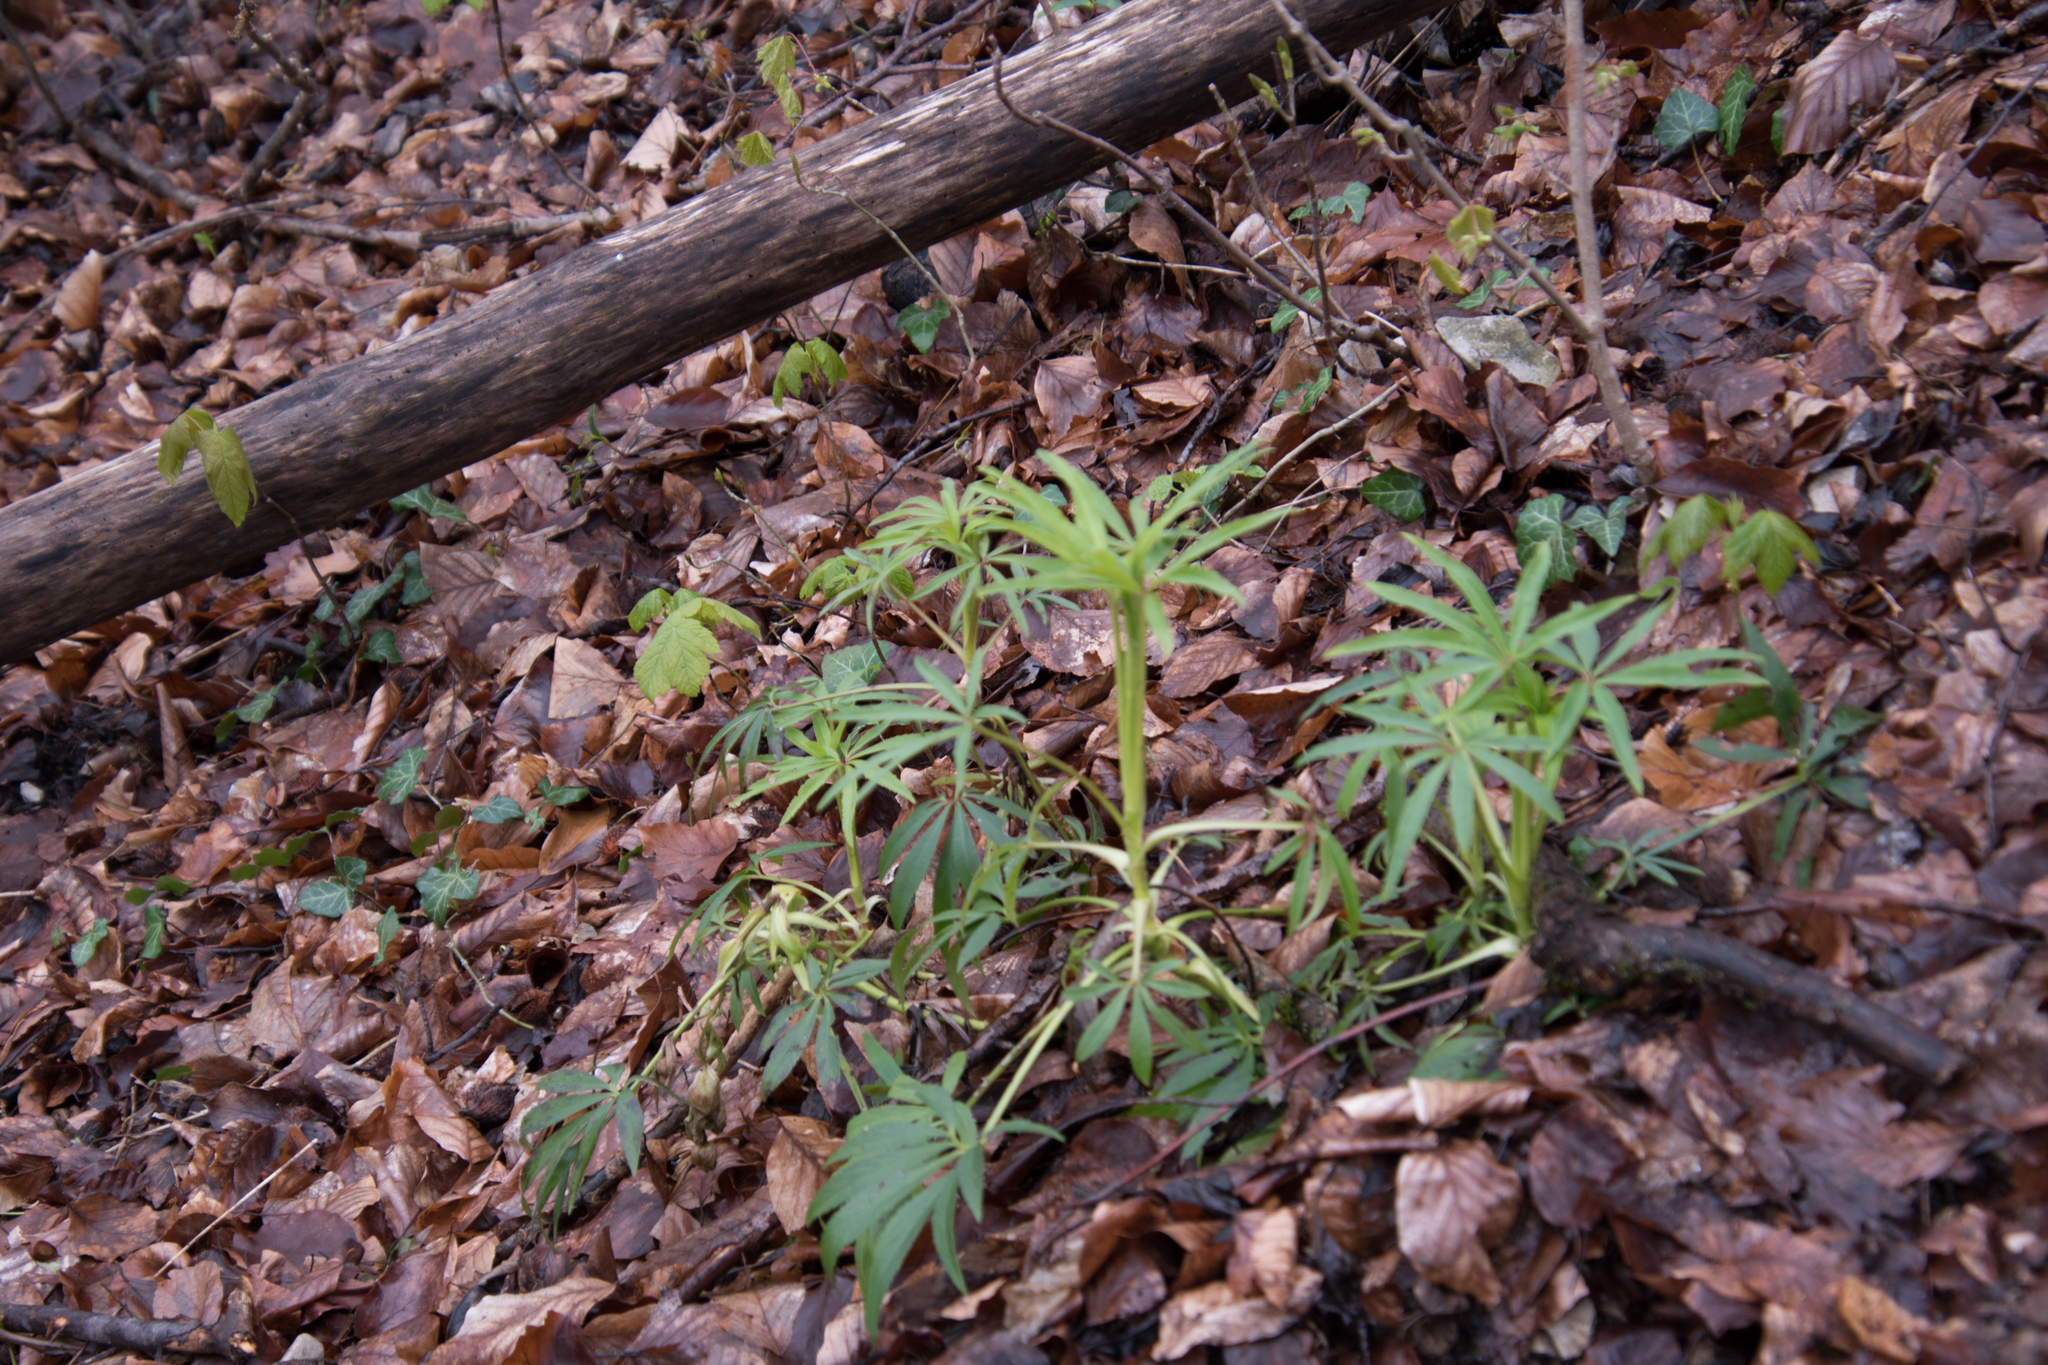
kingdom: Plantae
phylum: Tracheophyta
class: Magnoliopsida
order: Ranunculales
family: Ranunculaceae
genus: Helleborus
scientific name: Helleborus foetidus
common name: Stinking hellebore
